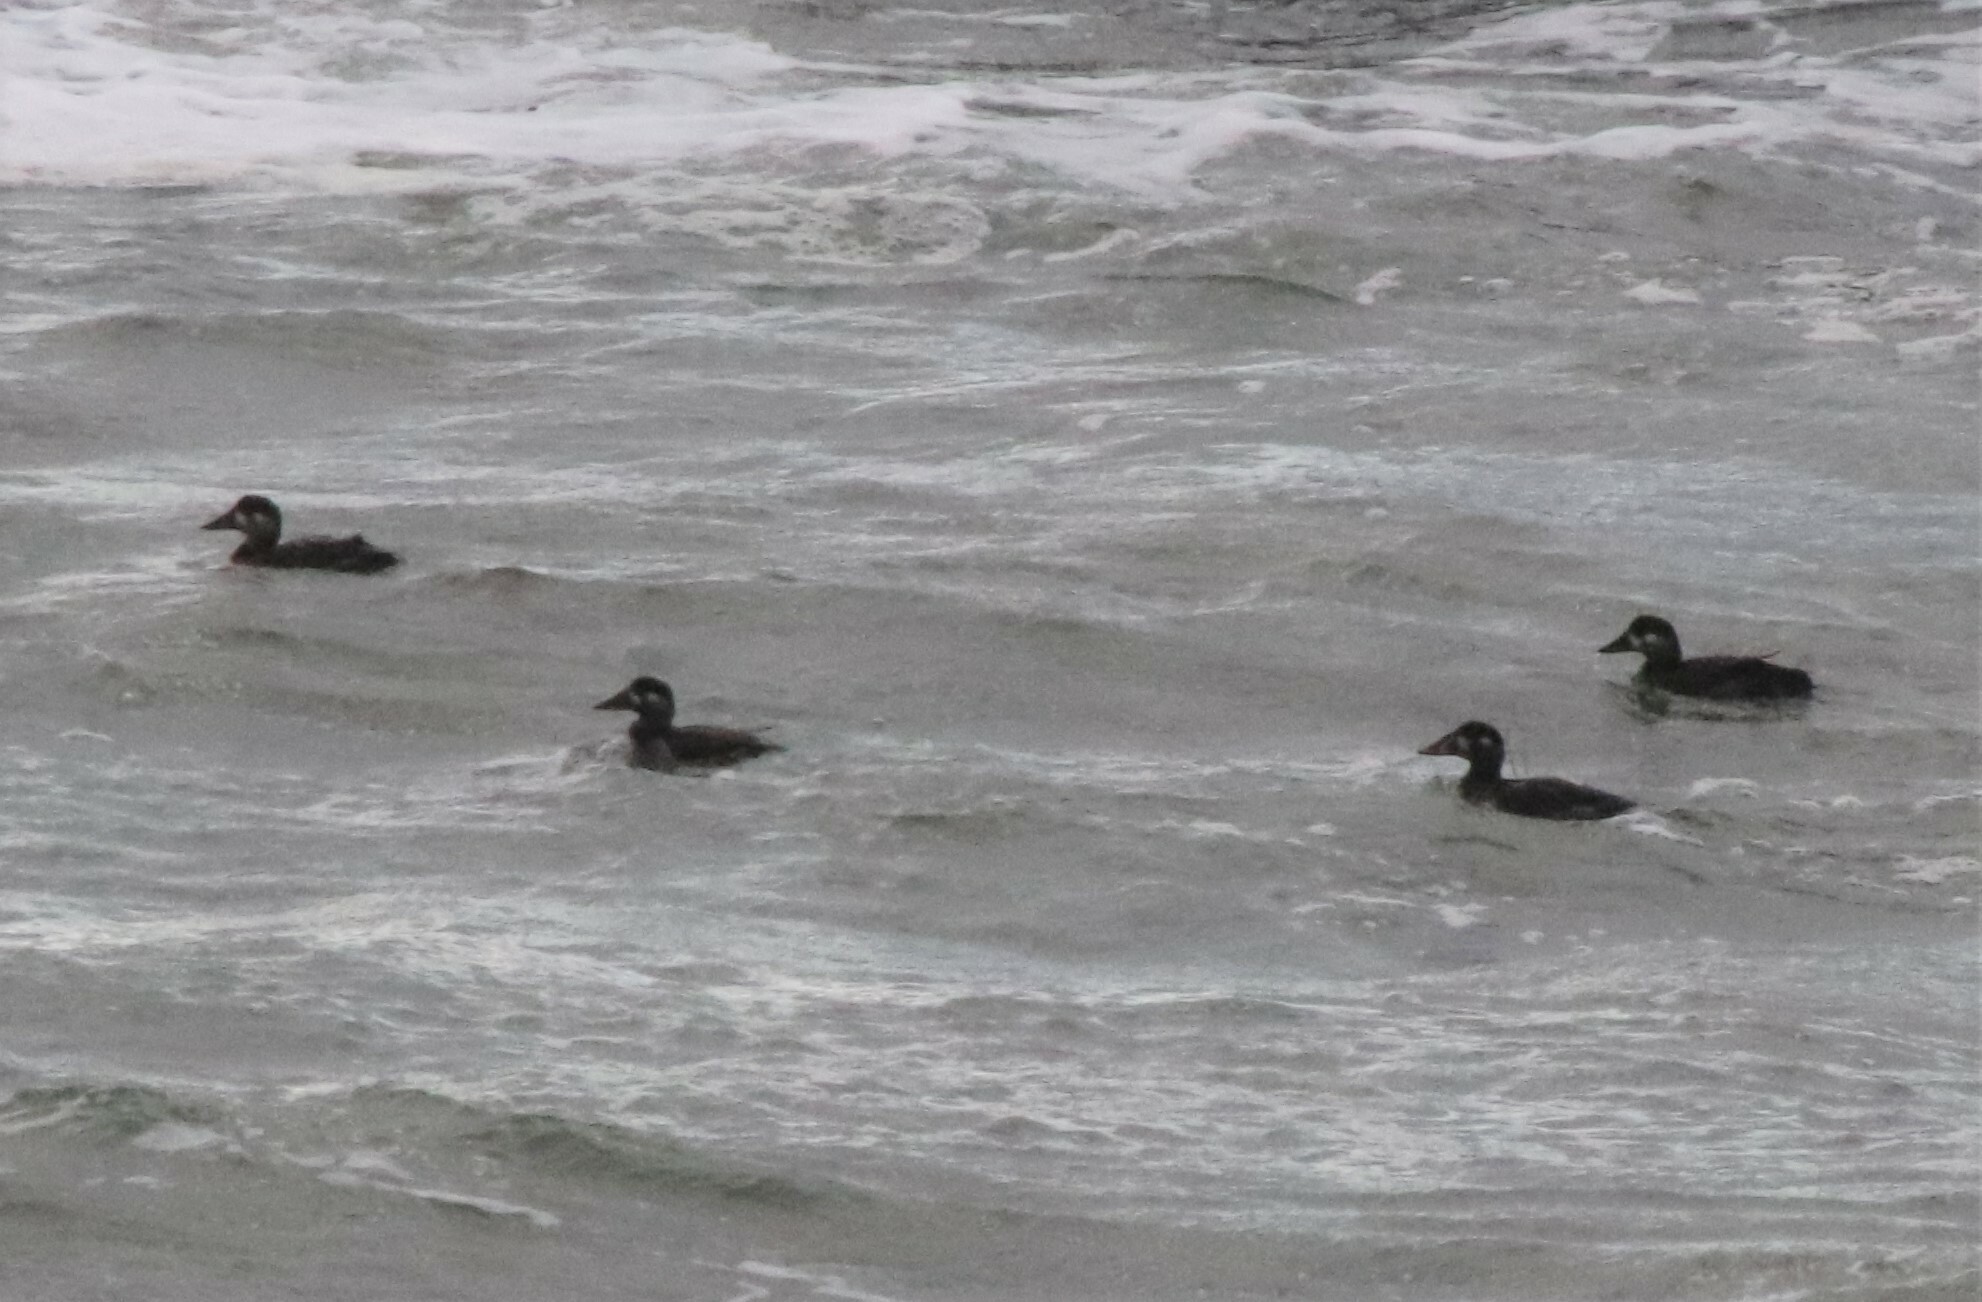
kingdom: Animalia
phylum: Chordata
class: Aves
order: Anseriformes
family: Anatidae
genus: Melanitta
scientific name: Melanitta perspicillata
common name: Surf scoter
